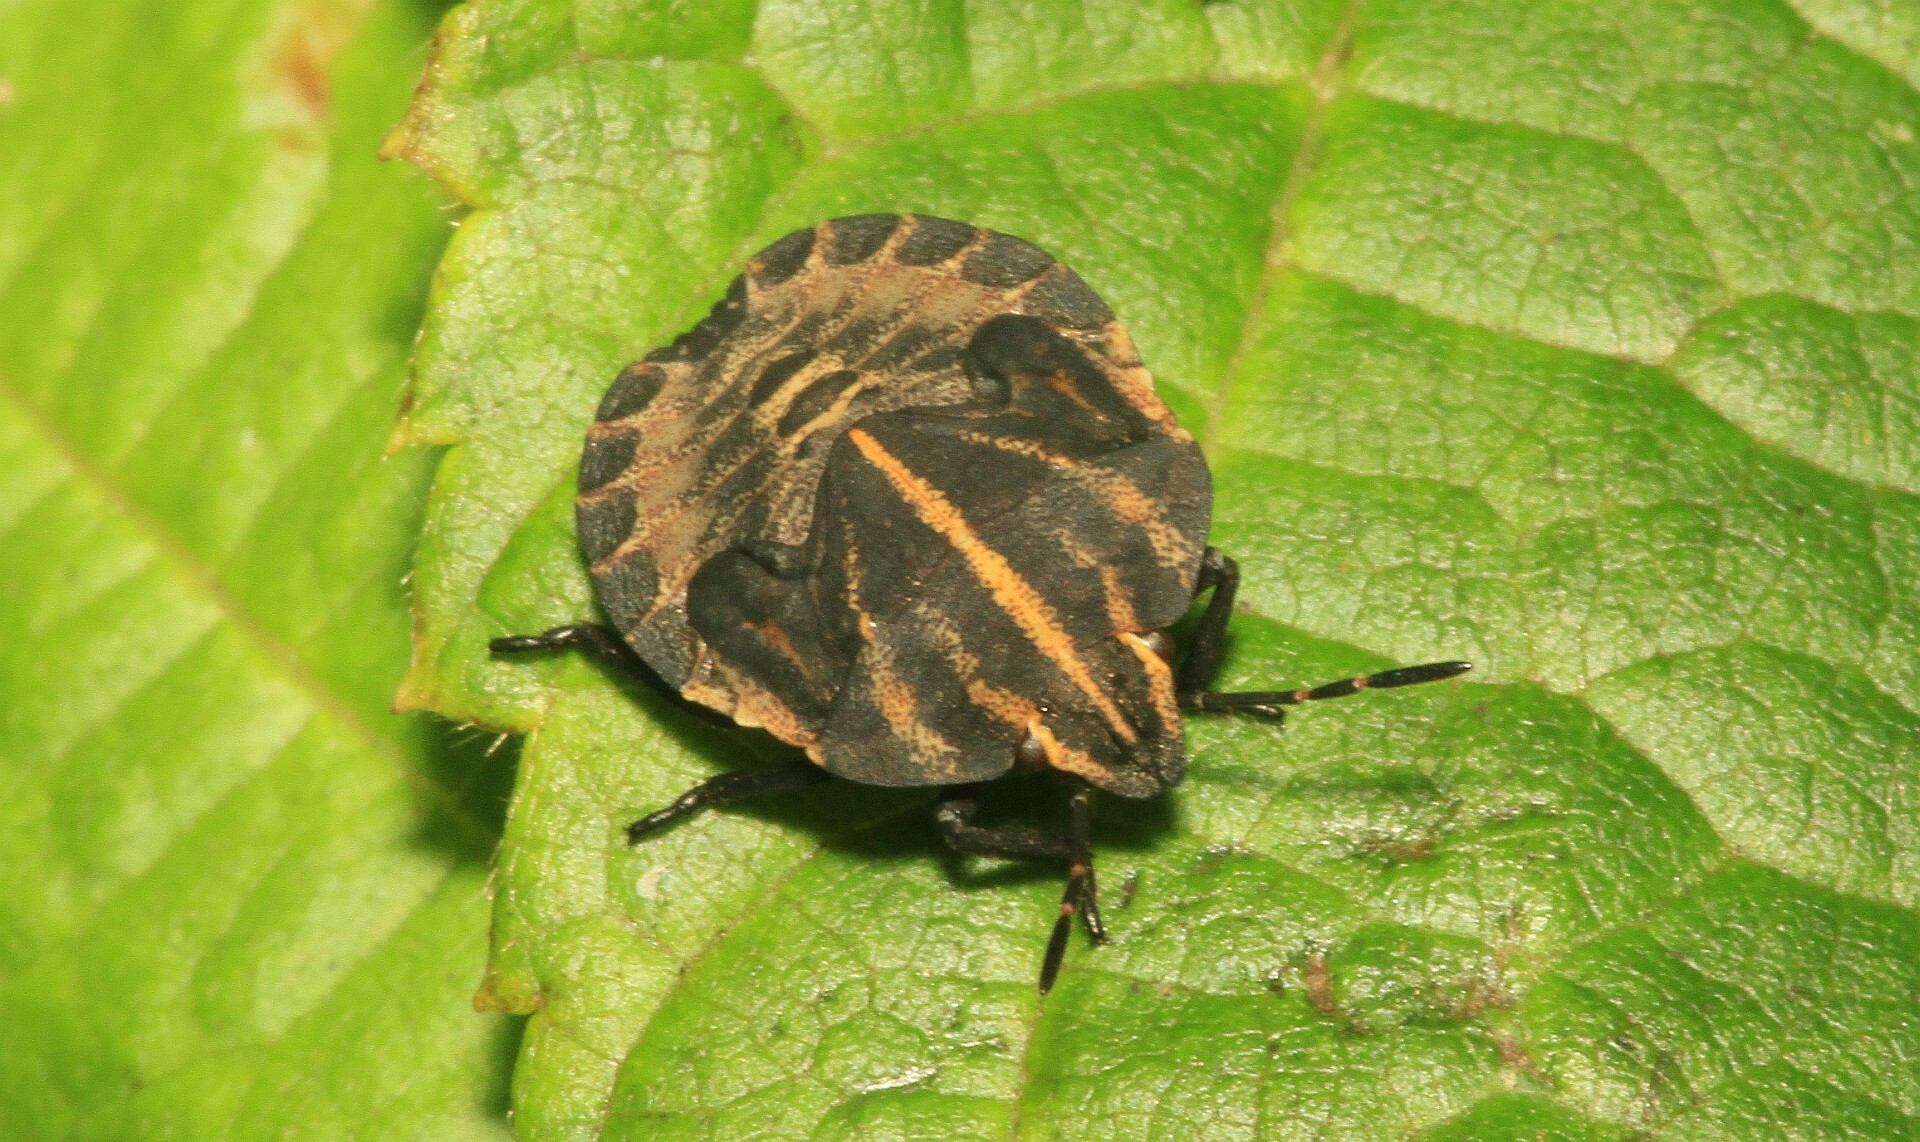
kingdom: Animalia
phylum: Arthropoda
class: Insecta
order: Hemiptera
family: Pentatomidae
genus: Graphosoma
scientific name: Graphosoma italicum
